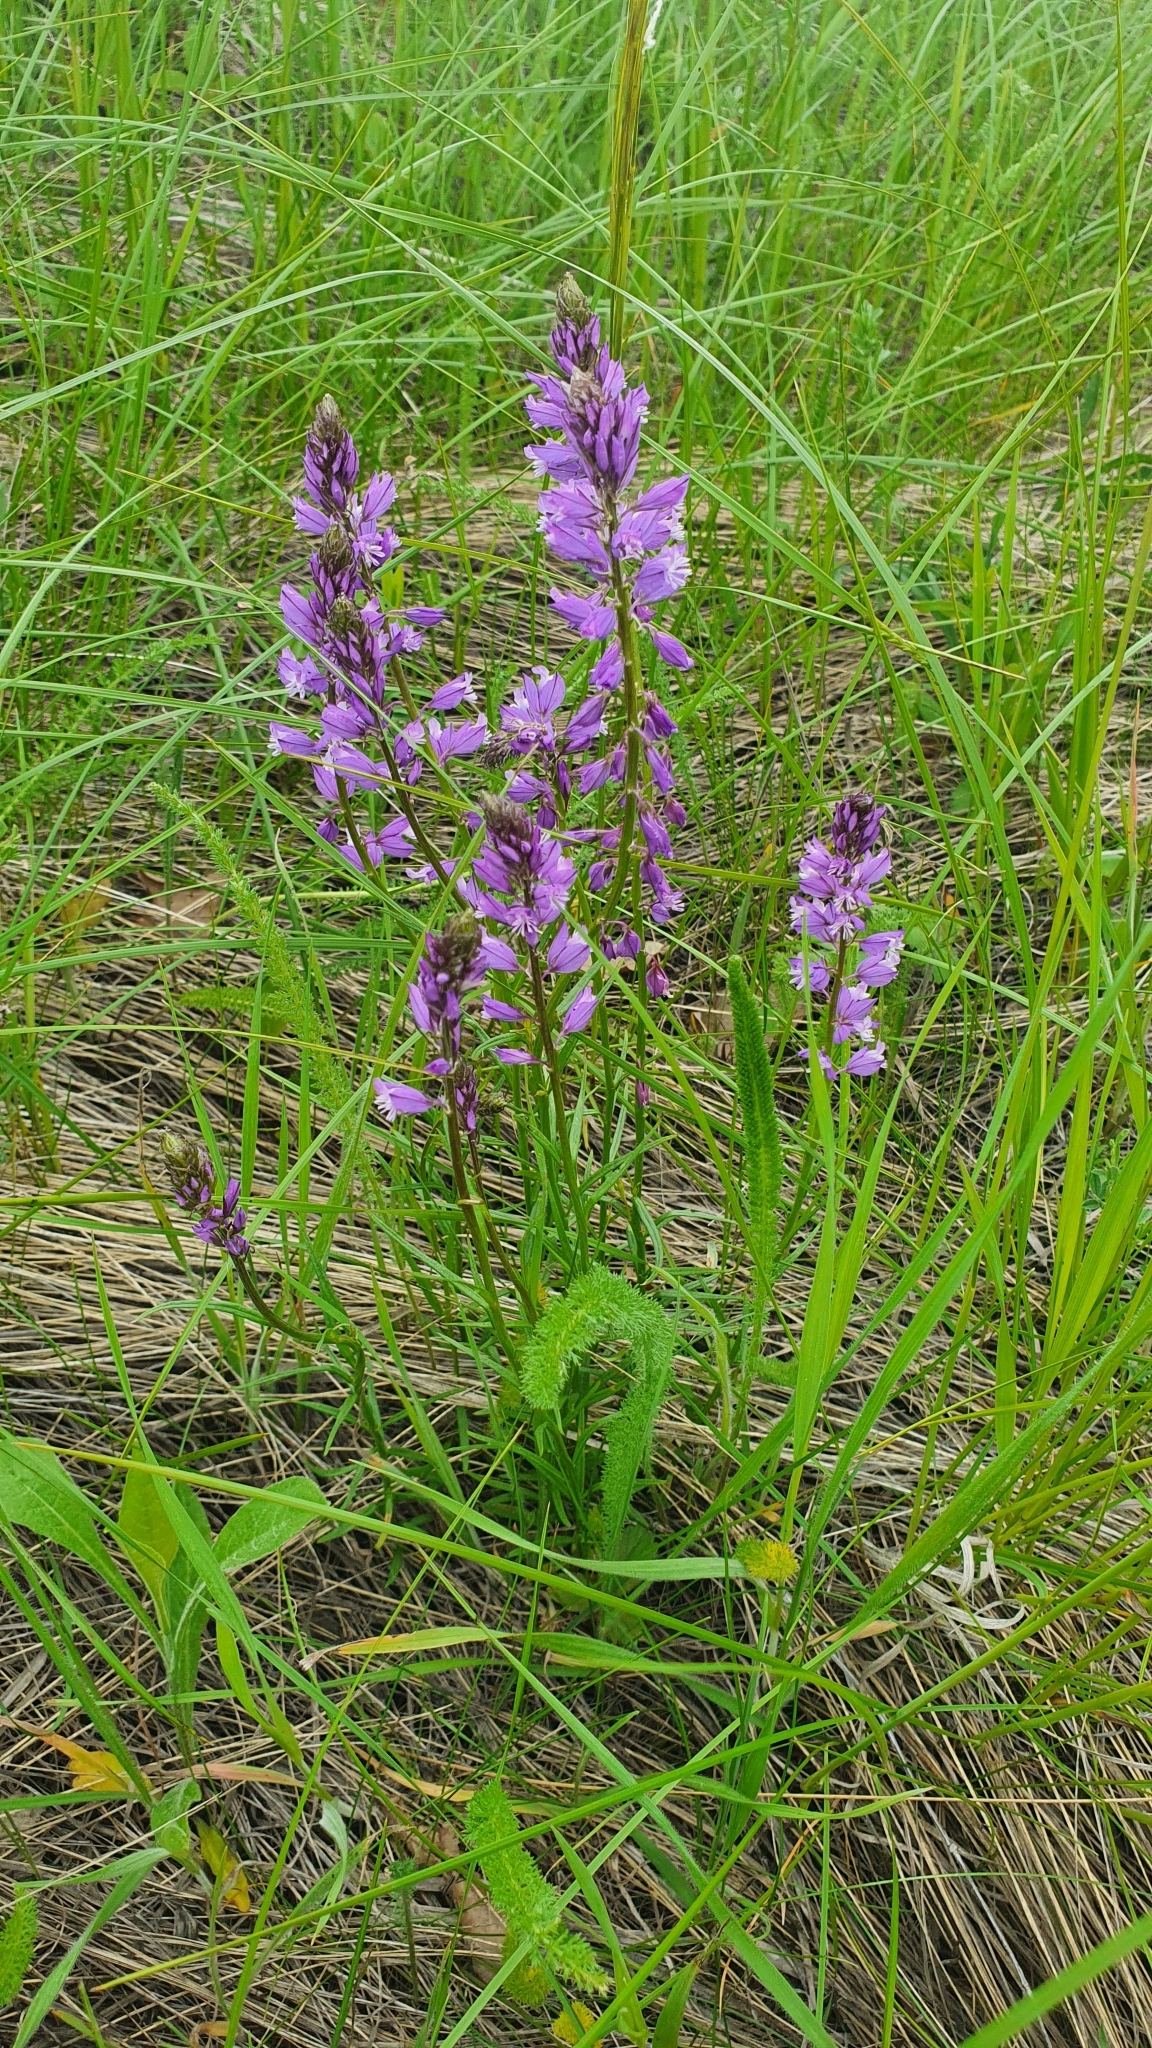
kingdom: Plantae
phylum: Tracheophyta
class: Magnoliopsida
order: Fabales
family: Polygalaceae
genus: Polygala
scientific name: Polygala comosa
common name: Tufted milkwort
